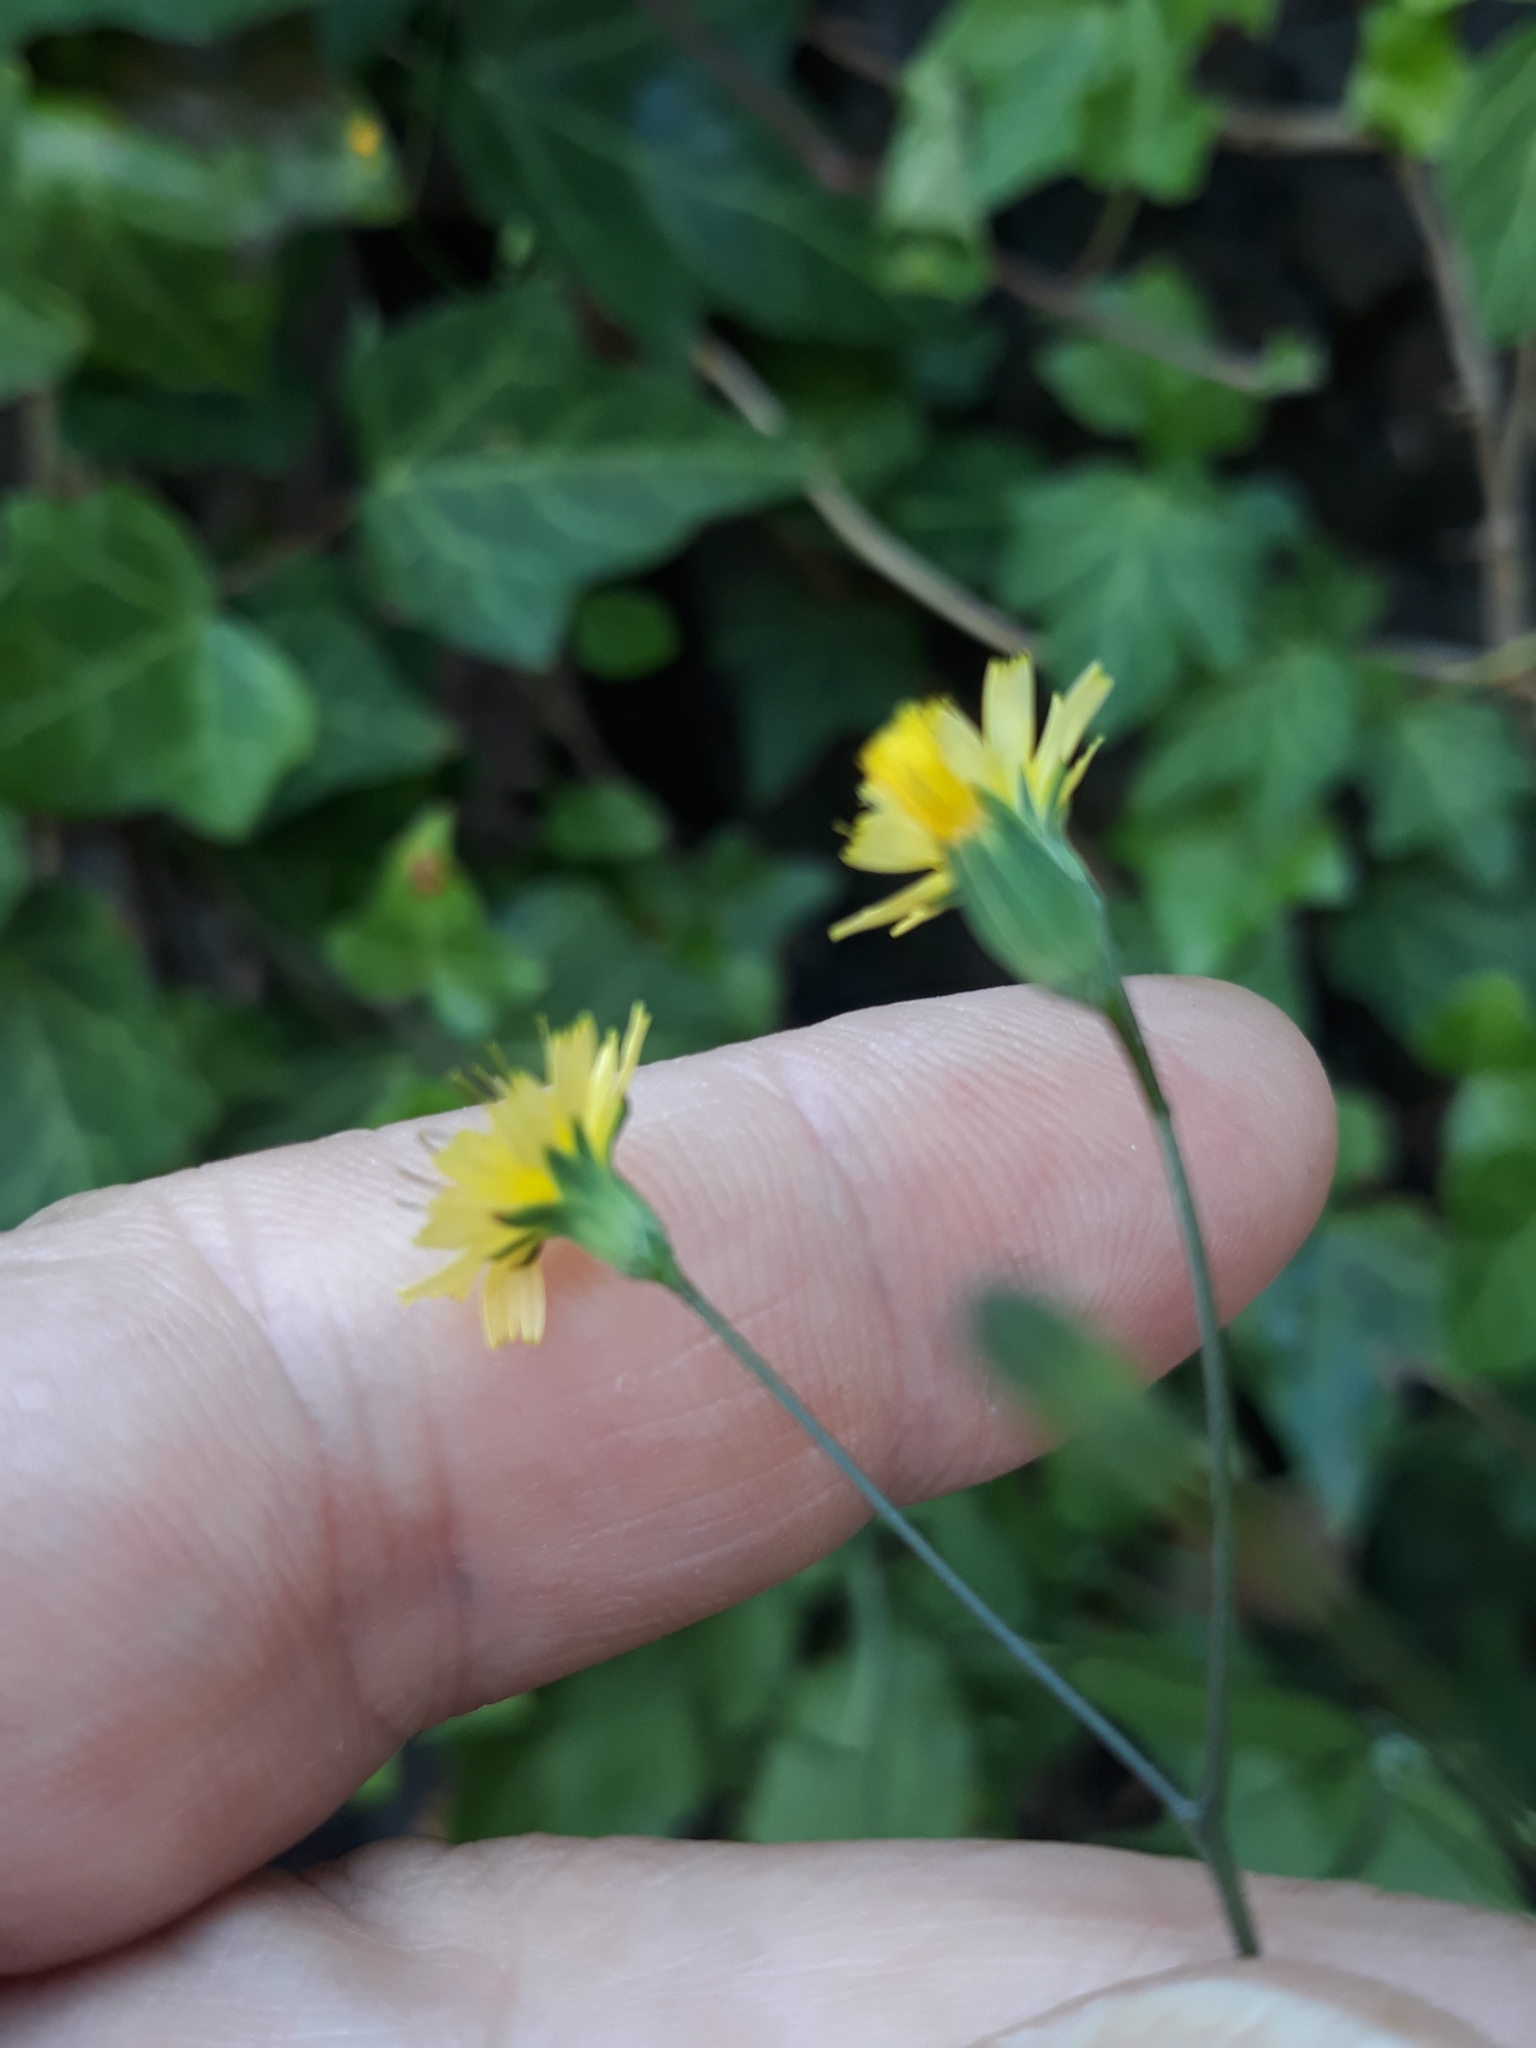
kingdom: Plantae
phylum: Tracheophyta
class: Magnoliopsida
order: Asterales
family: Asteraceae
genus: Lapsana
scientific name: Lapsana communis
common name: Nipplewort
